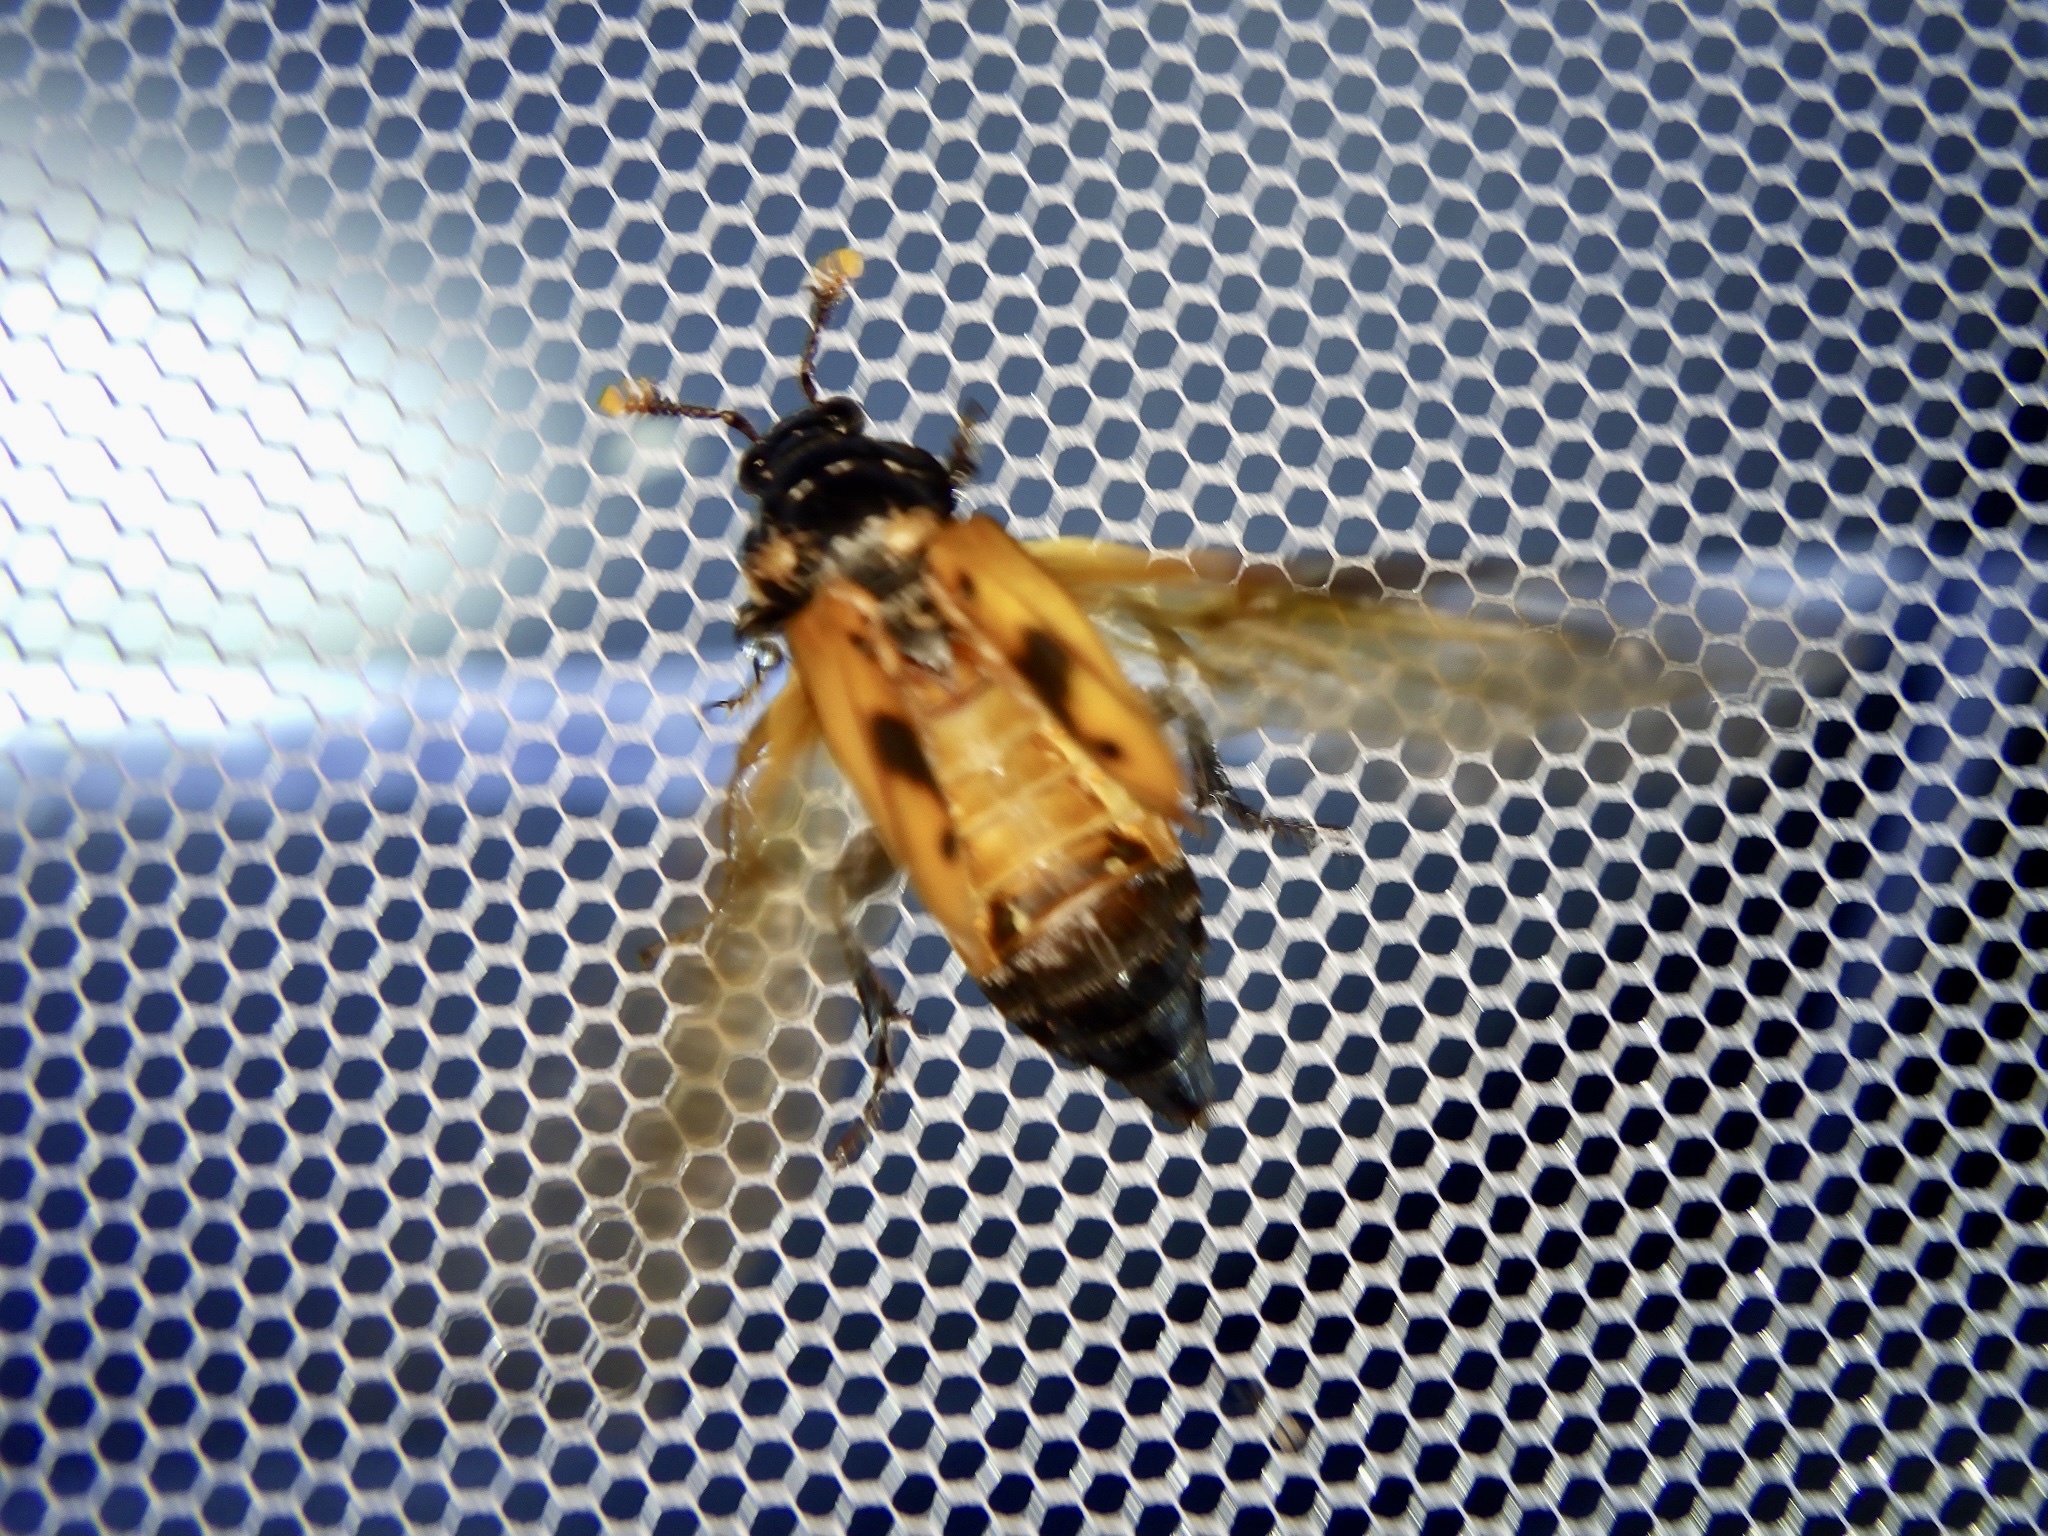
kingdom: Animalia
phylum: Arthropoda
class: Insecta
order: Coleoptera
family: Staphylinidae
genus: Nicrophorus
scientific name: Nicrophorus quadripunctatus
